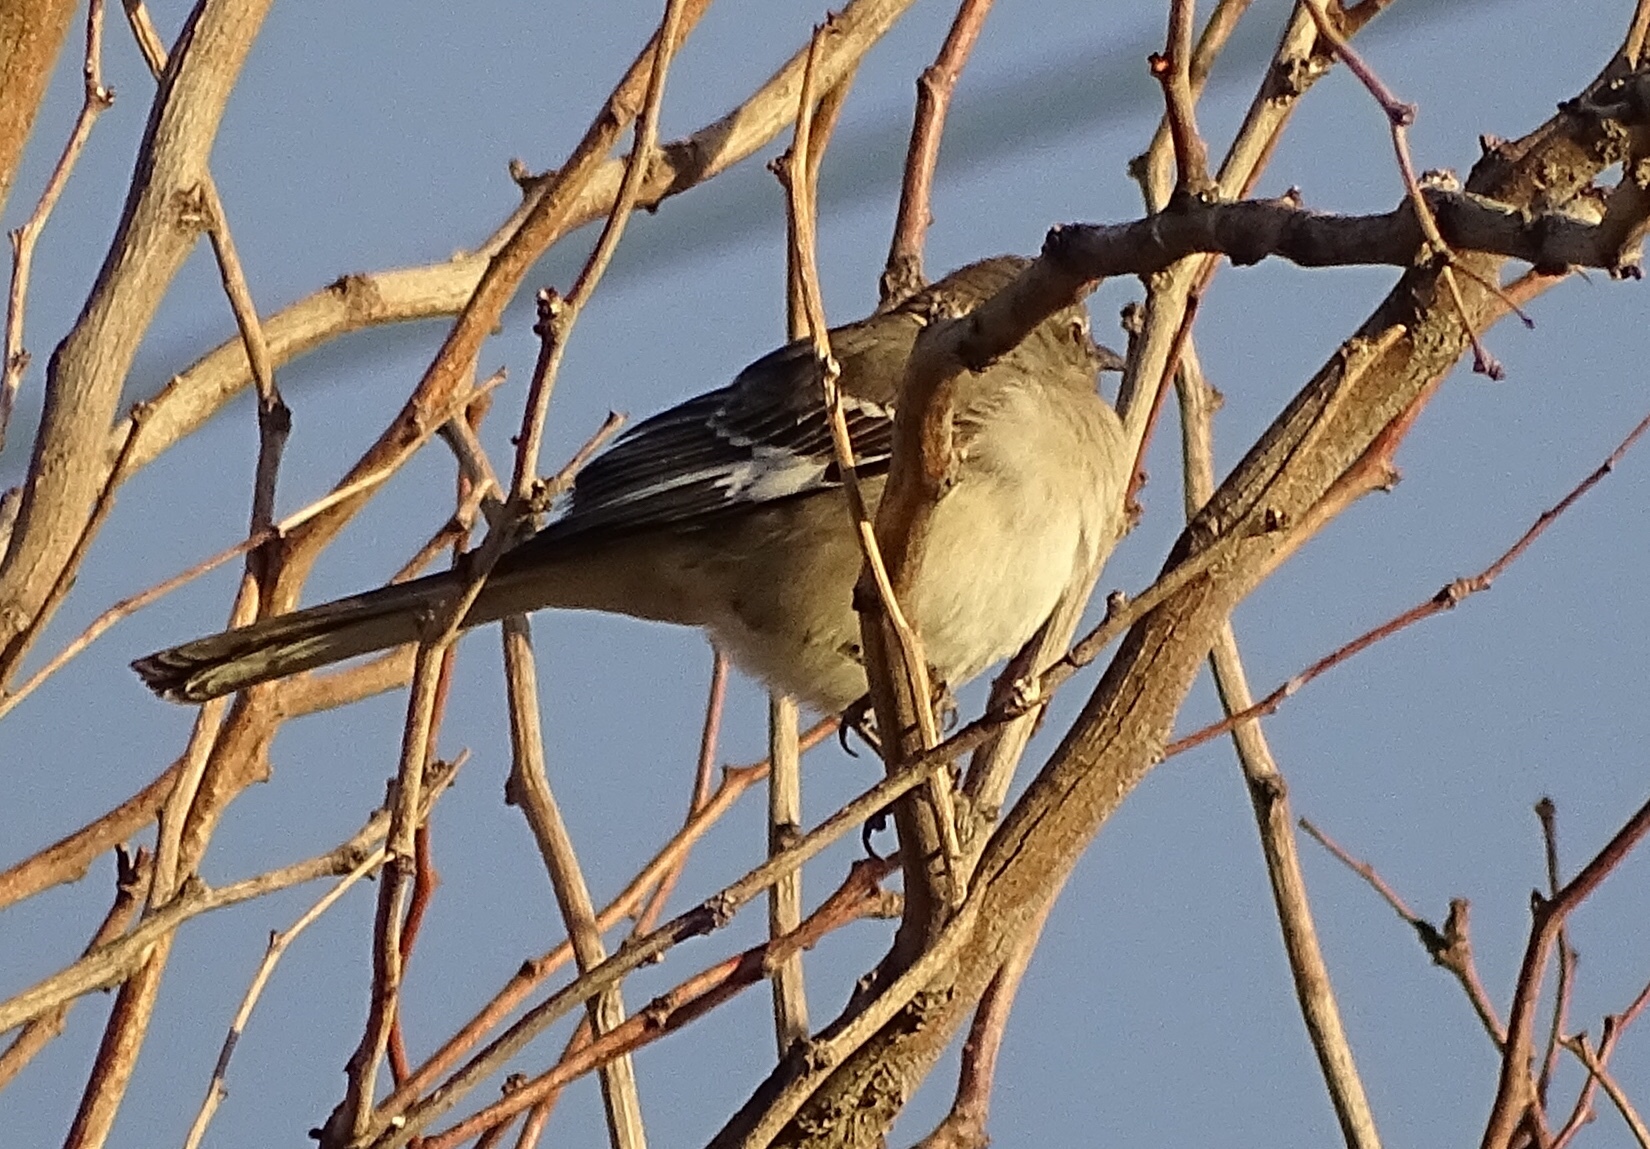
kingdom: Animalia
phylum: Chordata
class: Aves
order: Passeriformes
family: Mimidae
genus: Mimus
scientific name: Mimus polyglottos
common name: Northern mockingbird
